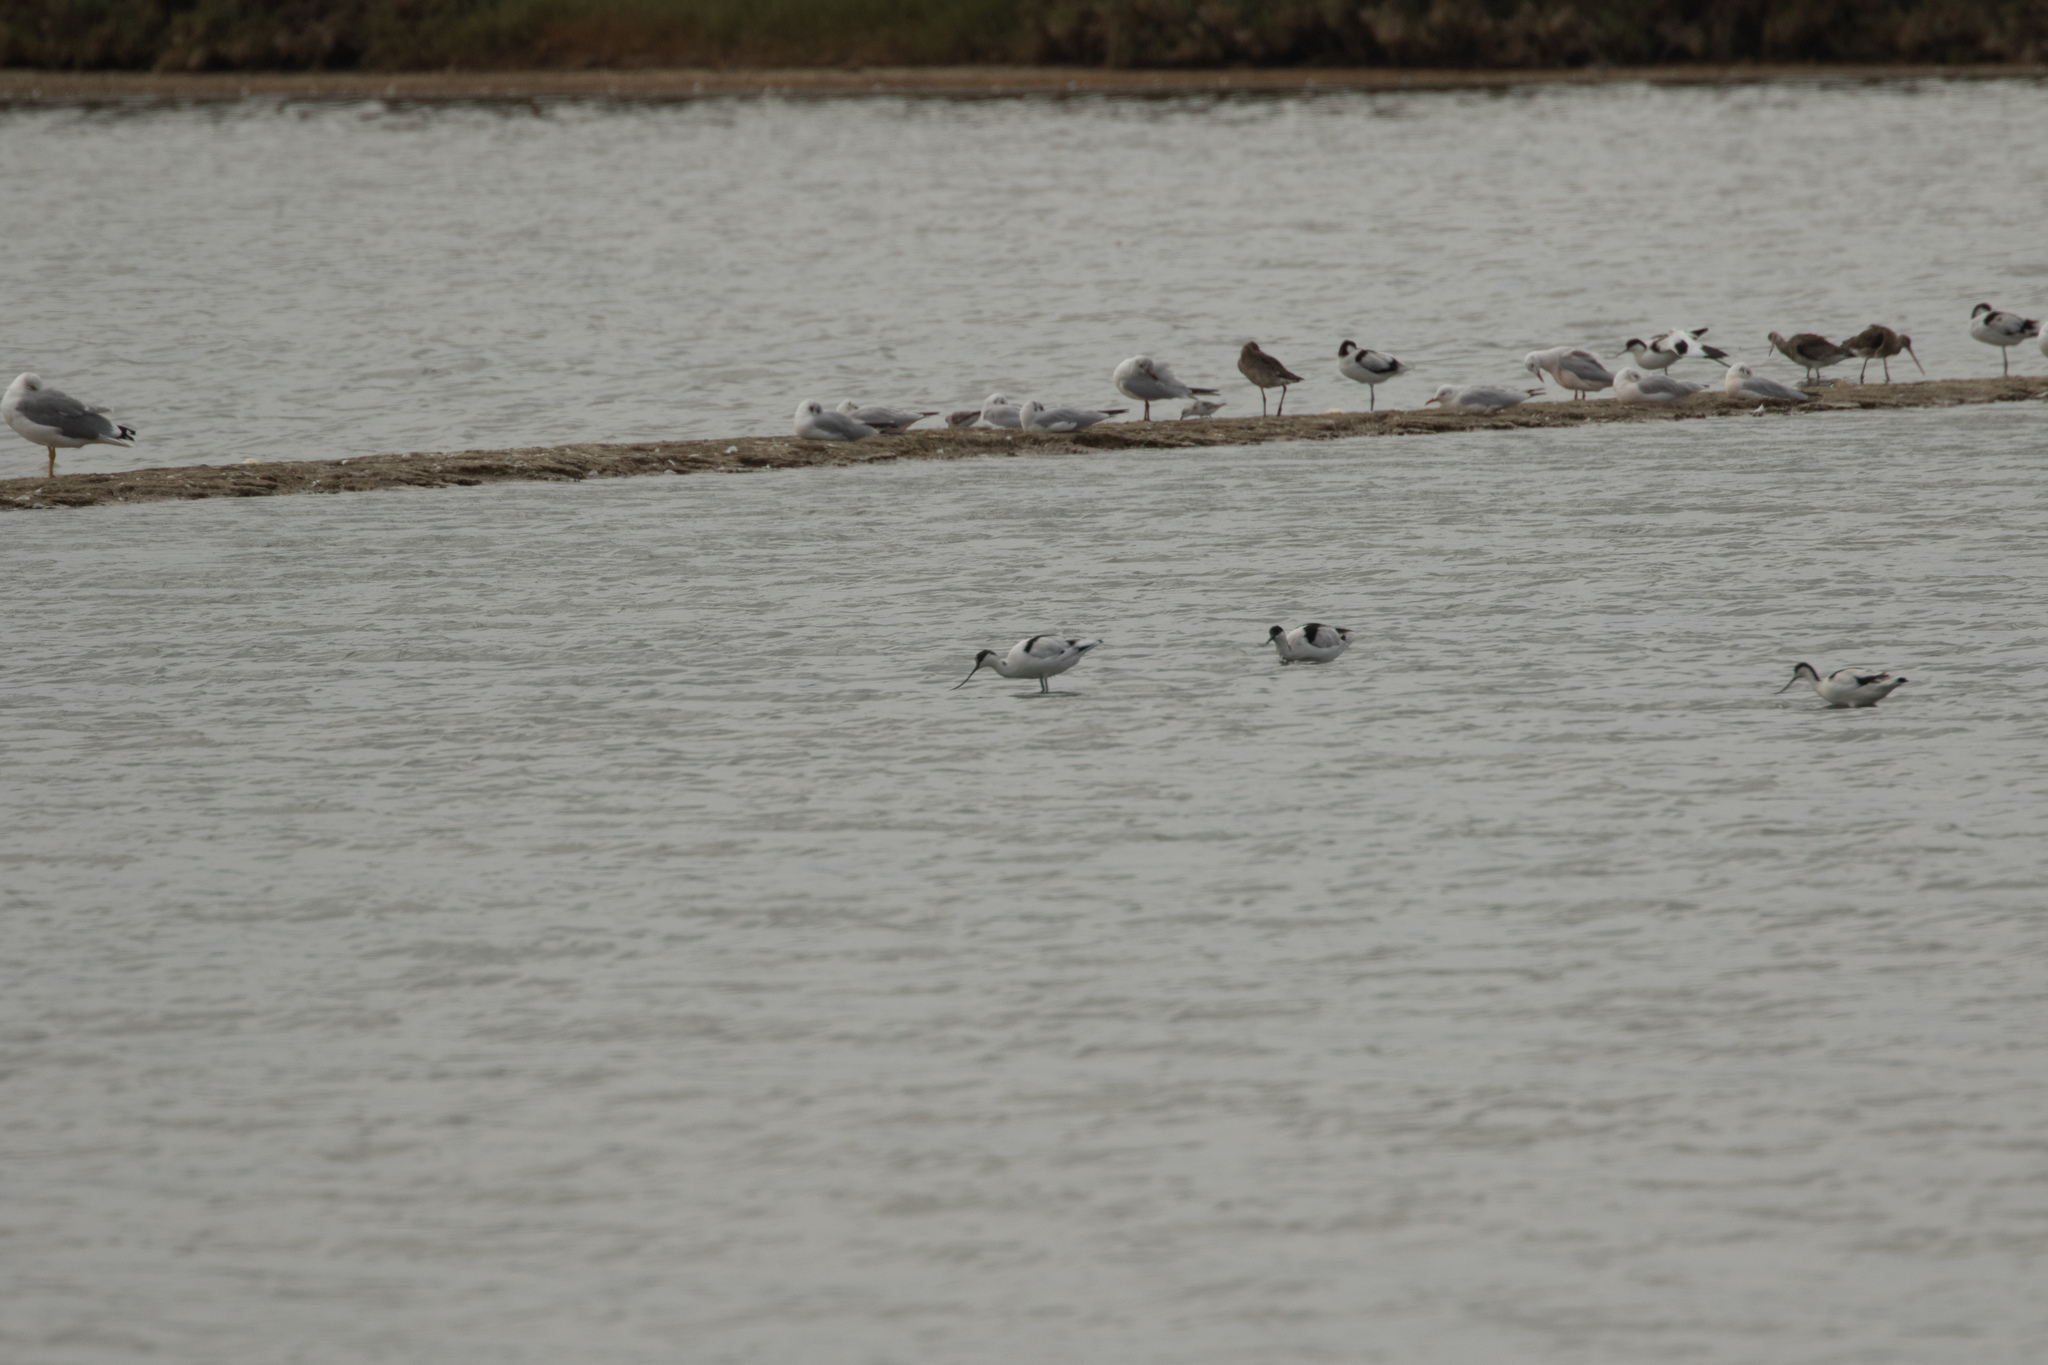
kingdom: Animalia
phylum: Chordata
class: Aves
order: Charadriiformes
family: Recurvirostridae
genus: Recurvirostra
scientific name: Recurvirostra avosetta
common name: Pied avocet
